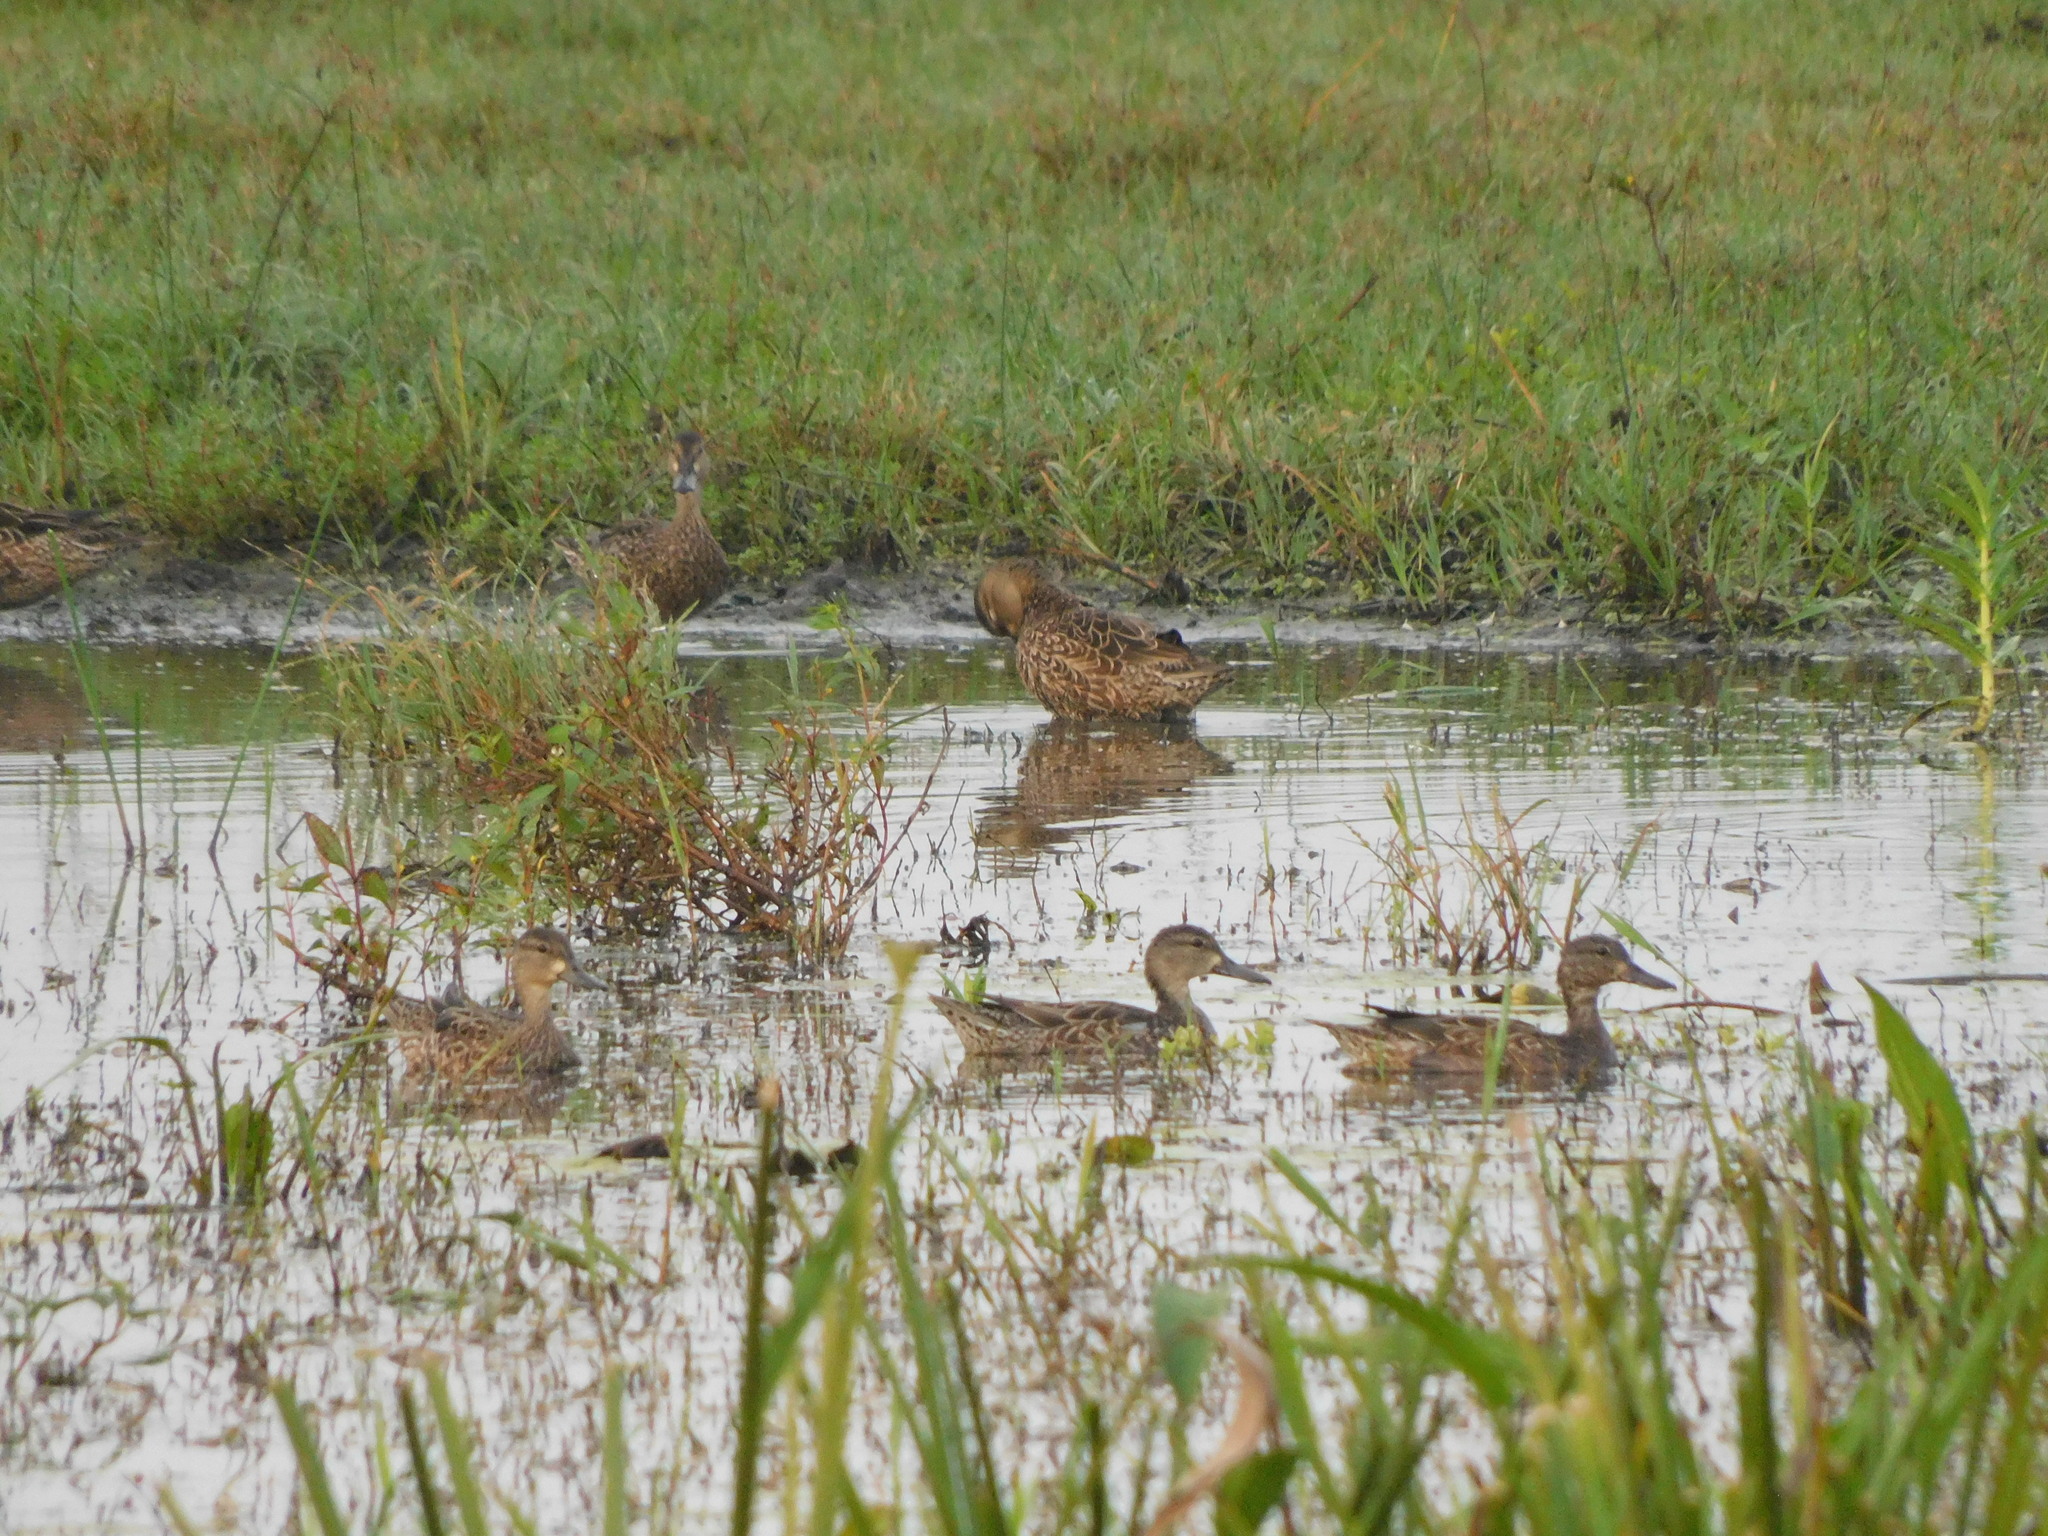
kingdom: Animalia
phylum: Chordata
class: Aves
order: Anseriformes
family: Anatidae
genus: Spatula
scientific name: Spatula discors
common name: Blue-winged teal
